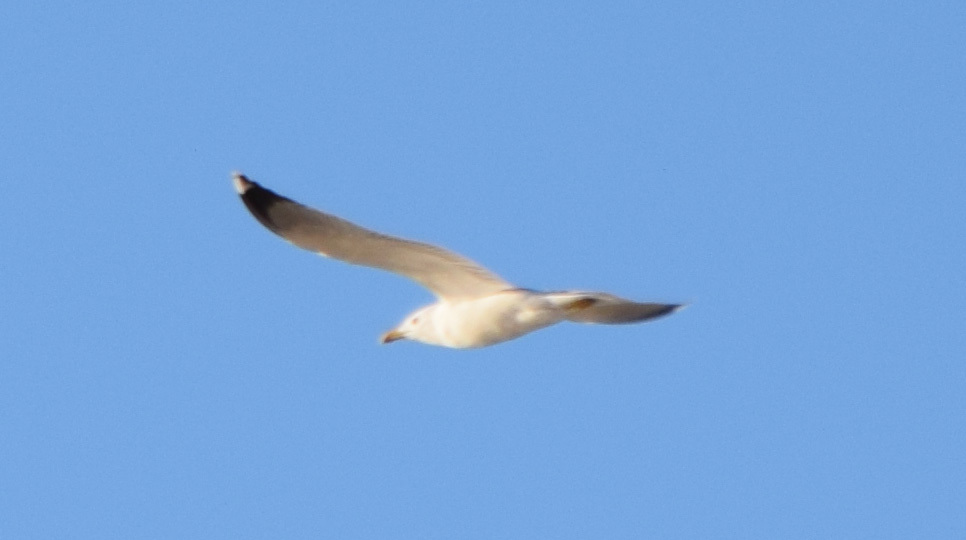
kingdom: Animalia
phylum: Chordata
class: Aves
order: Charadriiformes
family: Laridae
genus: Larus
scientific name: Larus michahellis
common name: Yellow-legged gull
